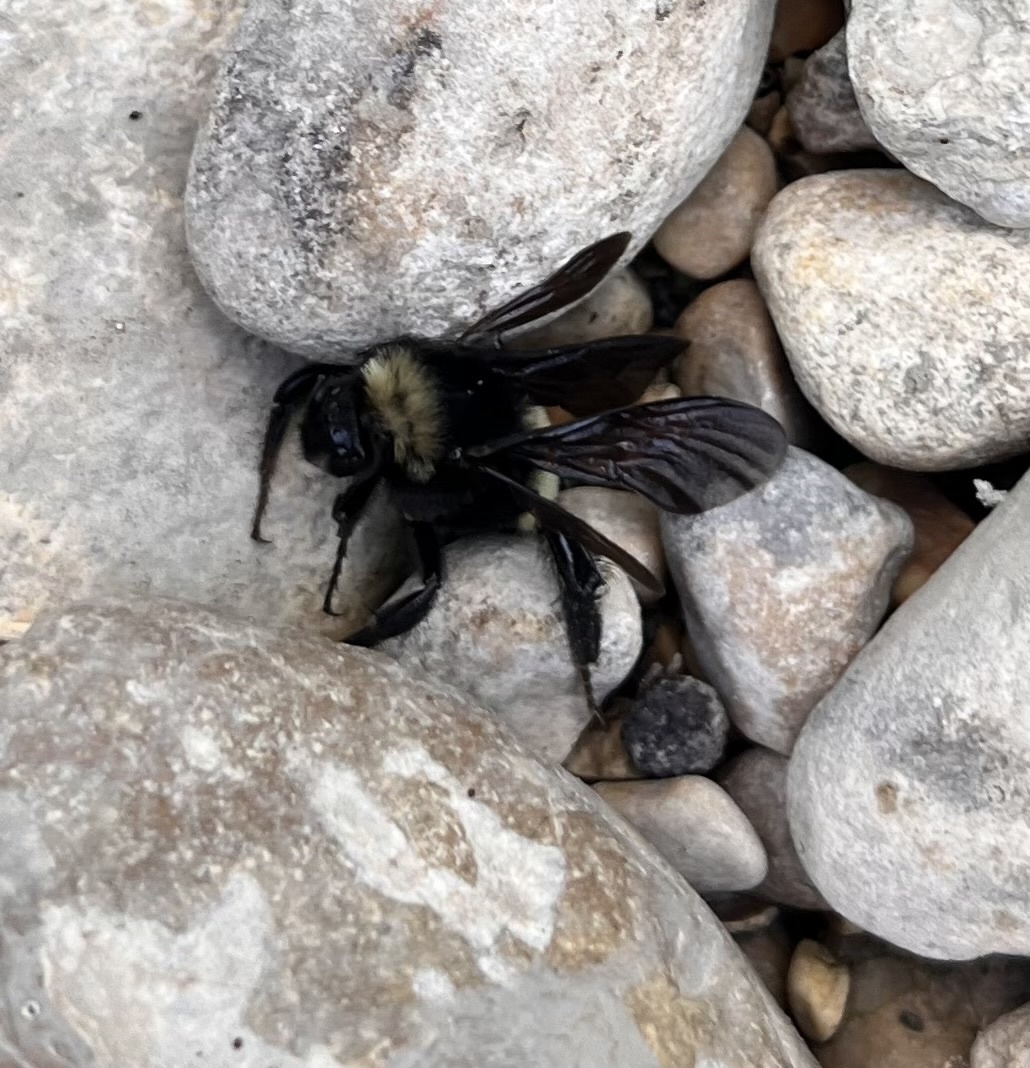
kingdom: Animalia
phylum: Arthropoda
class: Insecta
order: Hymenoptera
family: Apidae
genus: Bombus
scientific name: Bombus pensylvanicus
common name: Bumble bee
